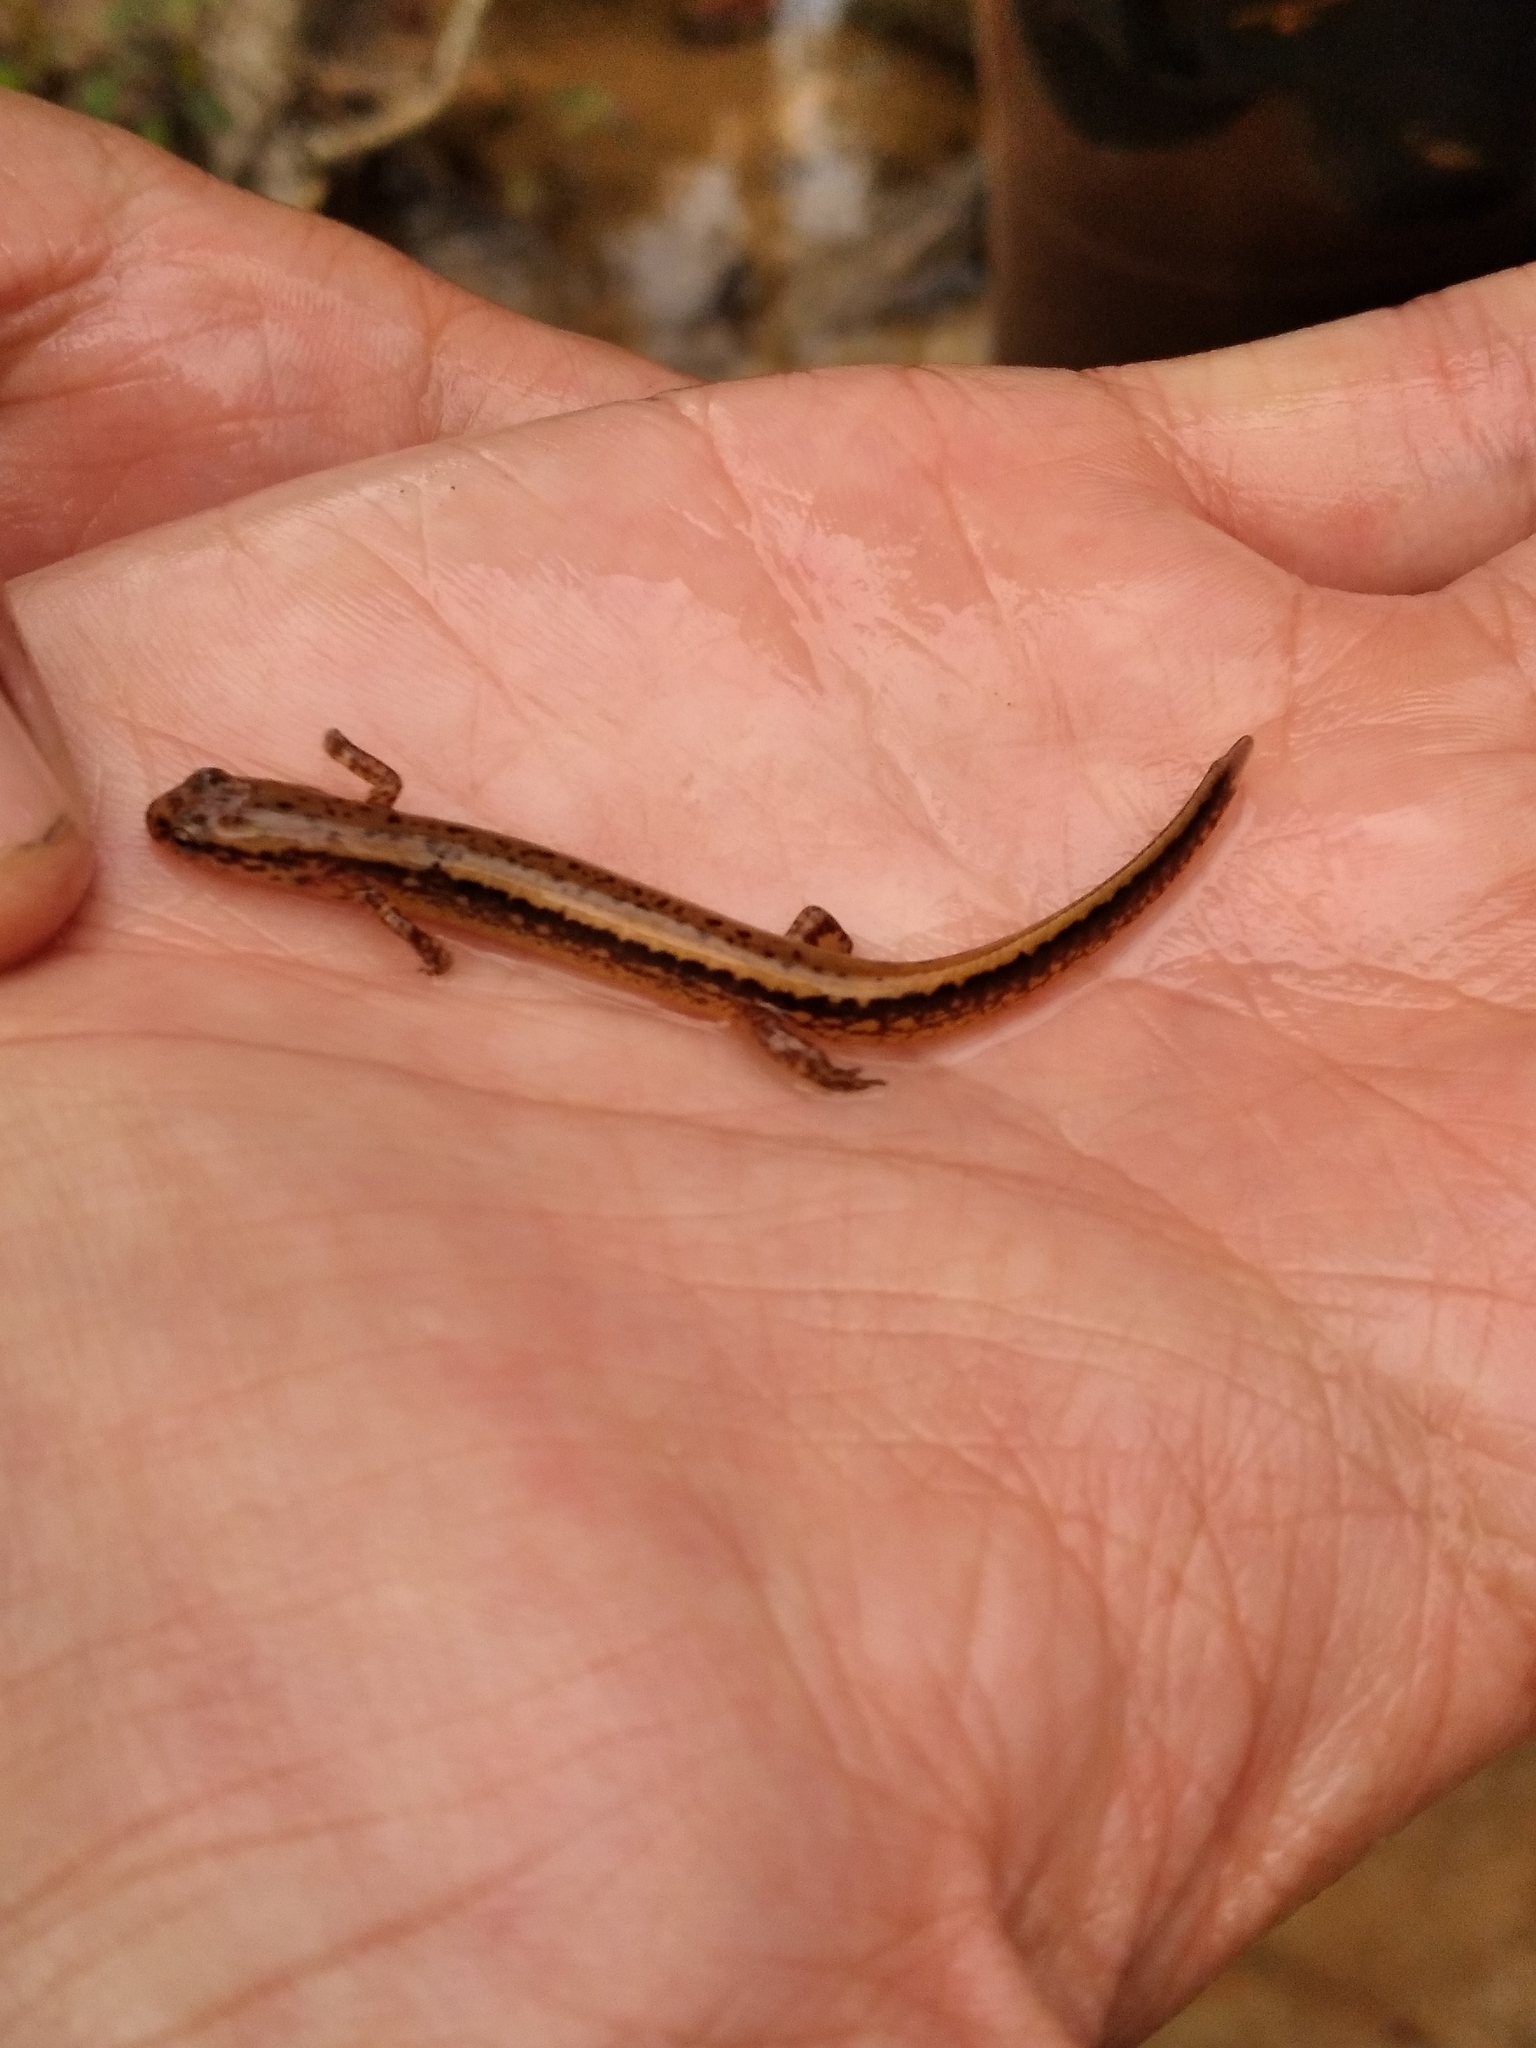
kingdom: Animalia
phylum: Chordata
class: Amphibia
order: Caudata
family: Plethodontidae
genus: Eurycea
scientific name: Eurycea cirrigera
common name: Southern two-lined salamander
